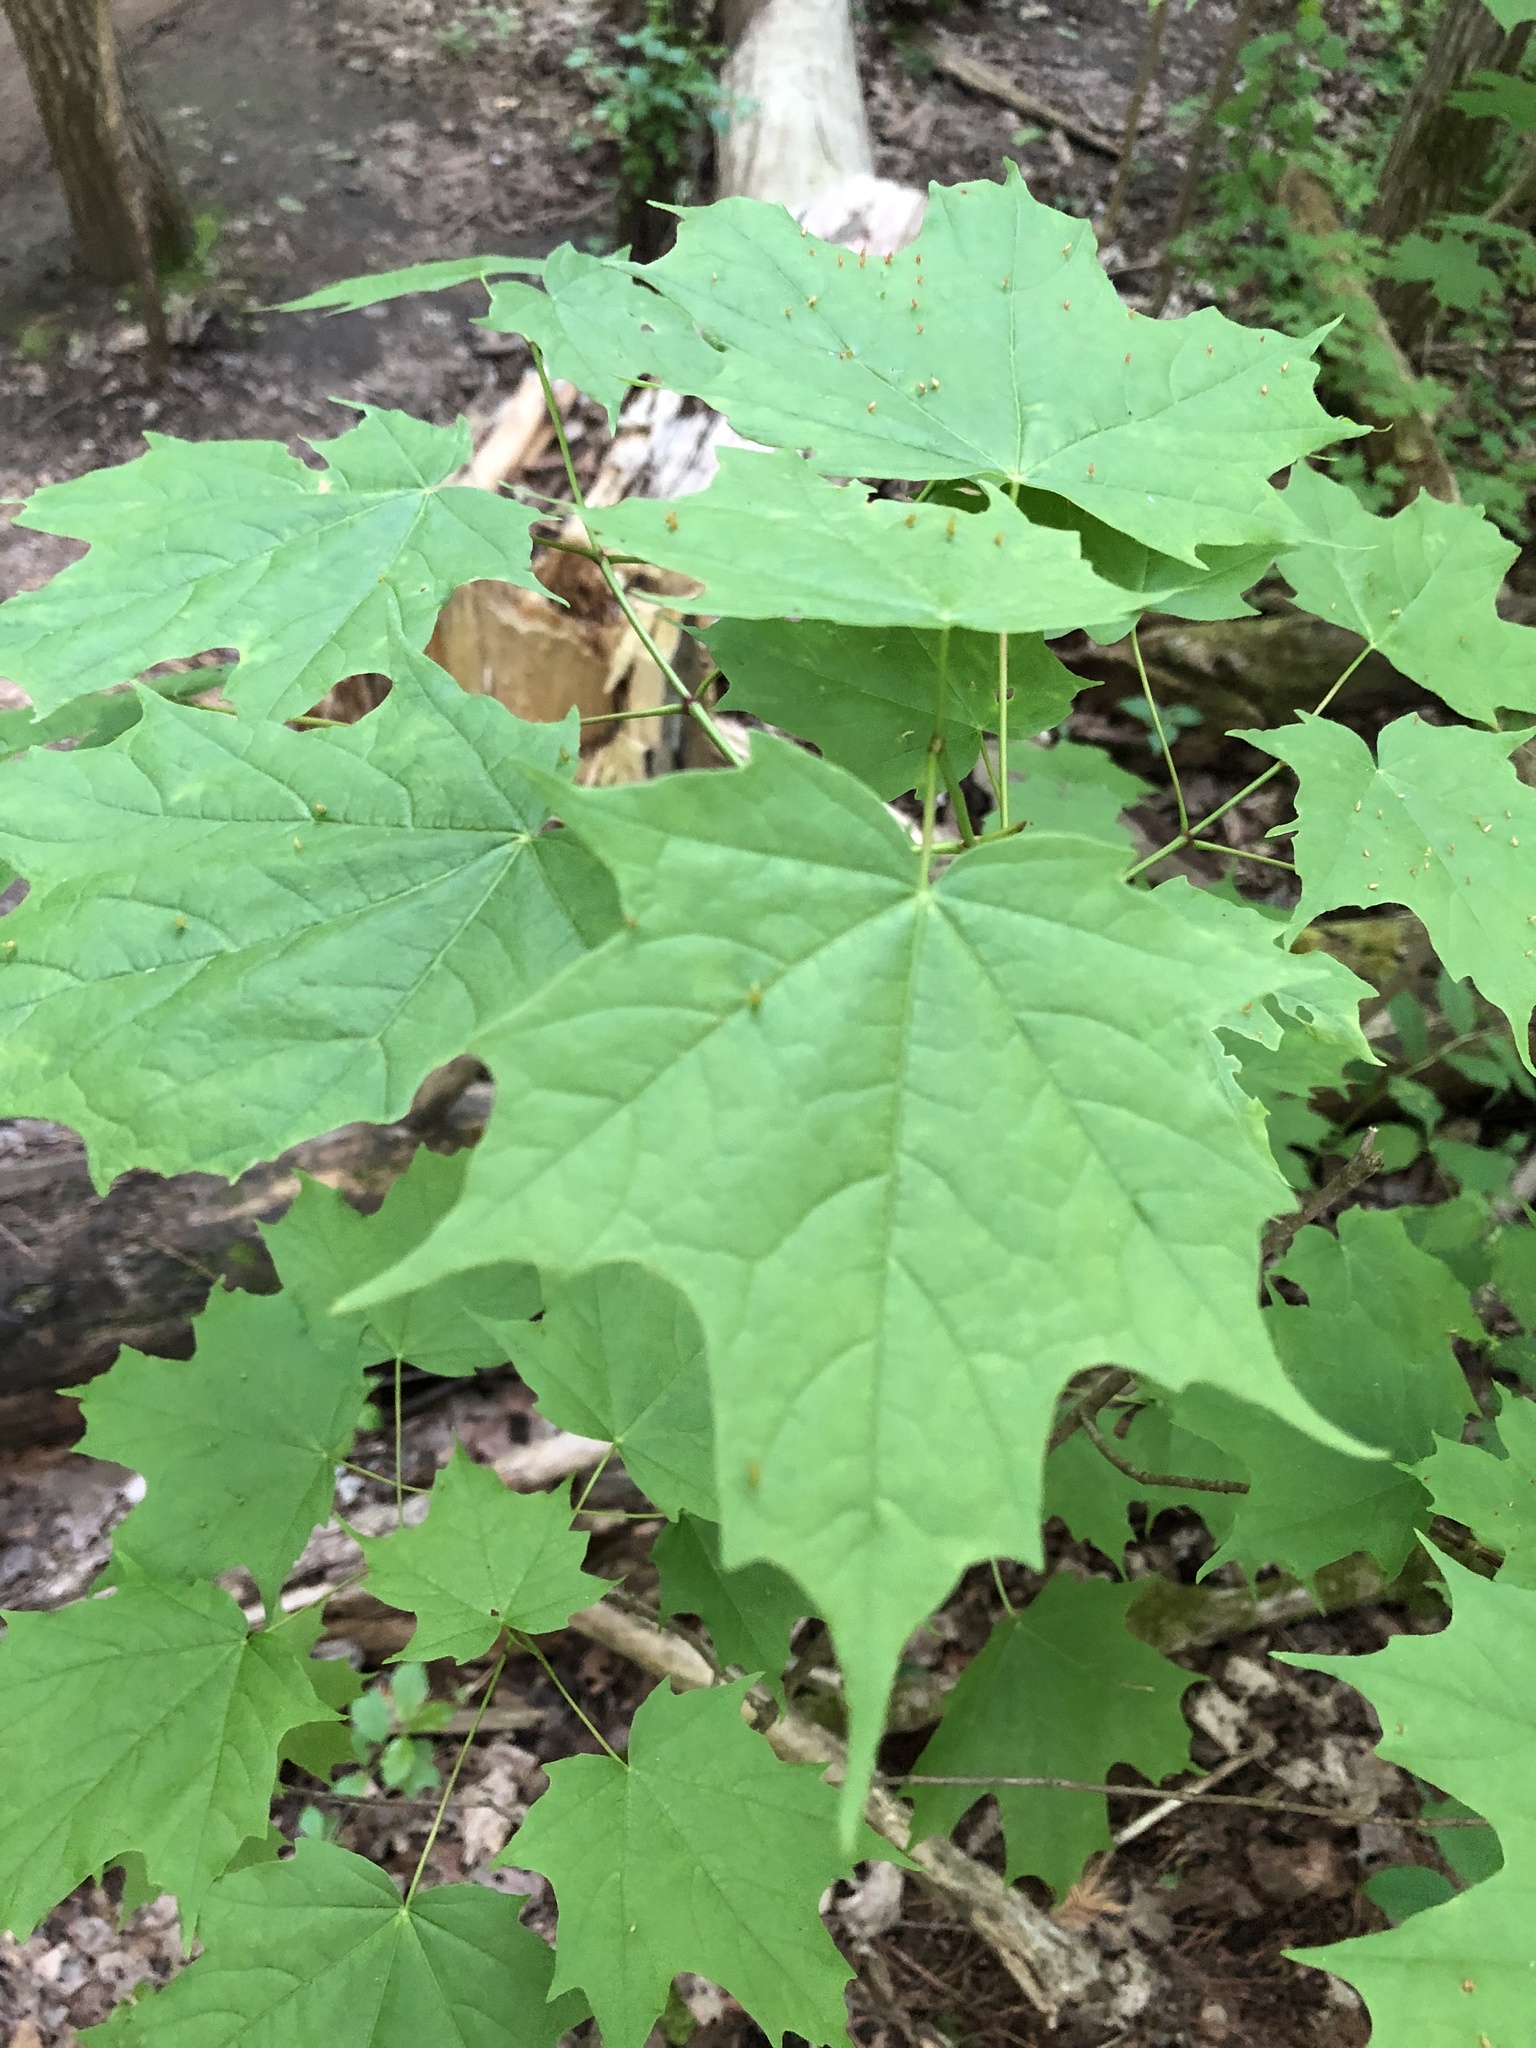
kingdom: Plantae
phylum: Tracheophyta
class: Magnoliopsida
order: Sapindales
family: Sapindaceae
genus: Acer
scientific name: Acer saccharum
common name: Sugar maple
